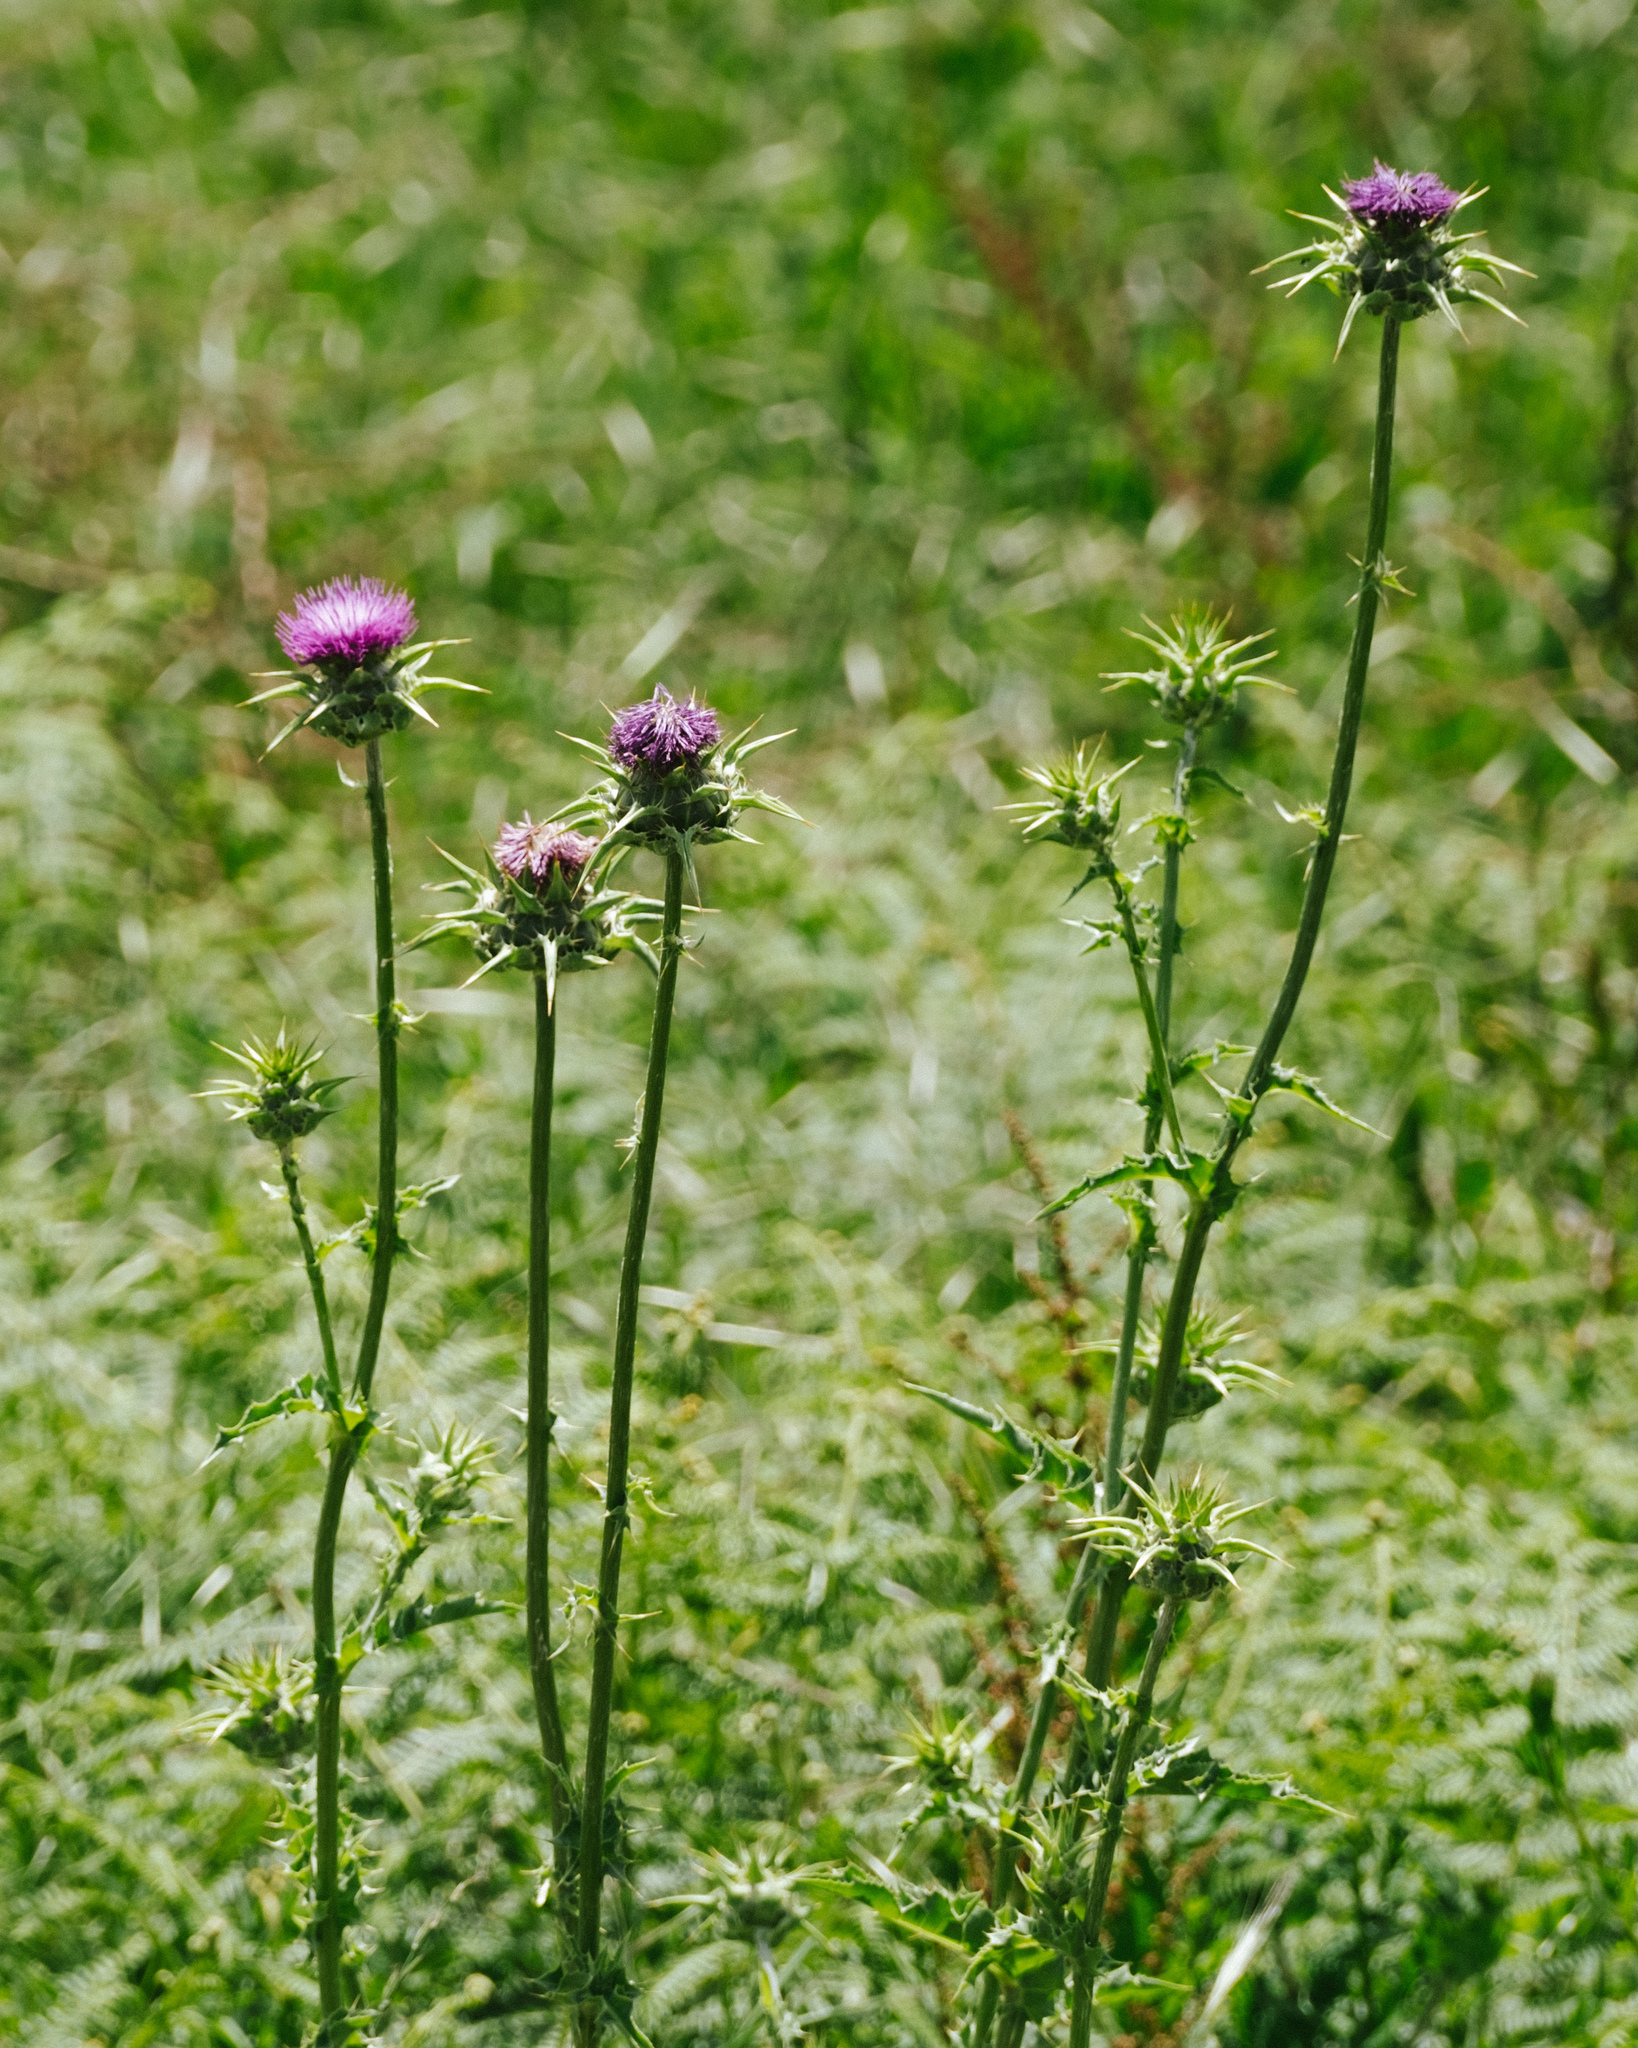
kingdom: Plantae
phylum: Tracheophyta
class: Magnoliopsida
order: Asterales
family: Asteraceae
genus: Silybum
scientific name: Silybum marianum
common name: Milk thistle
